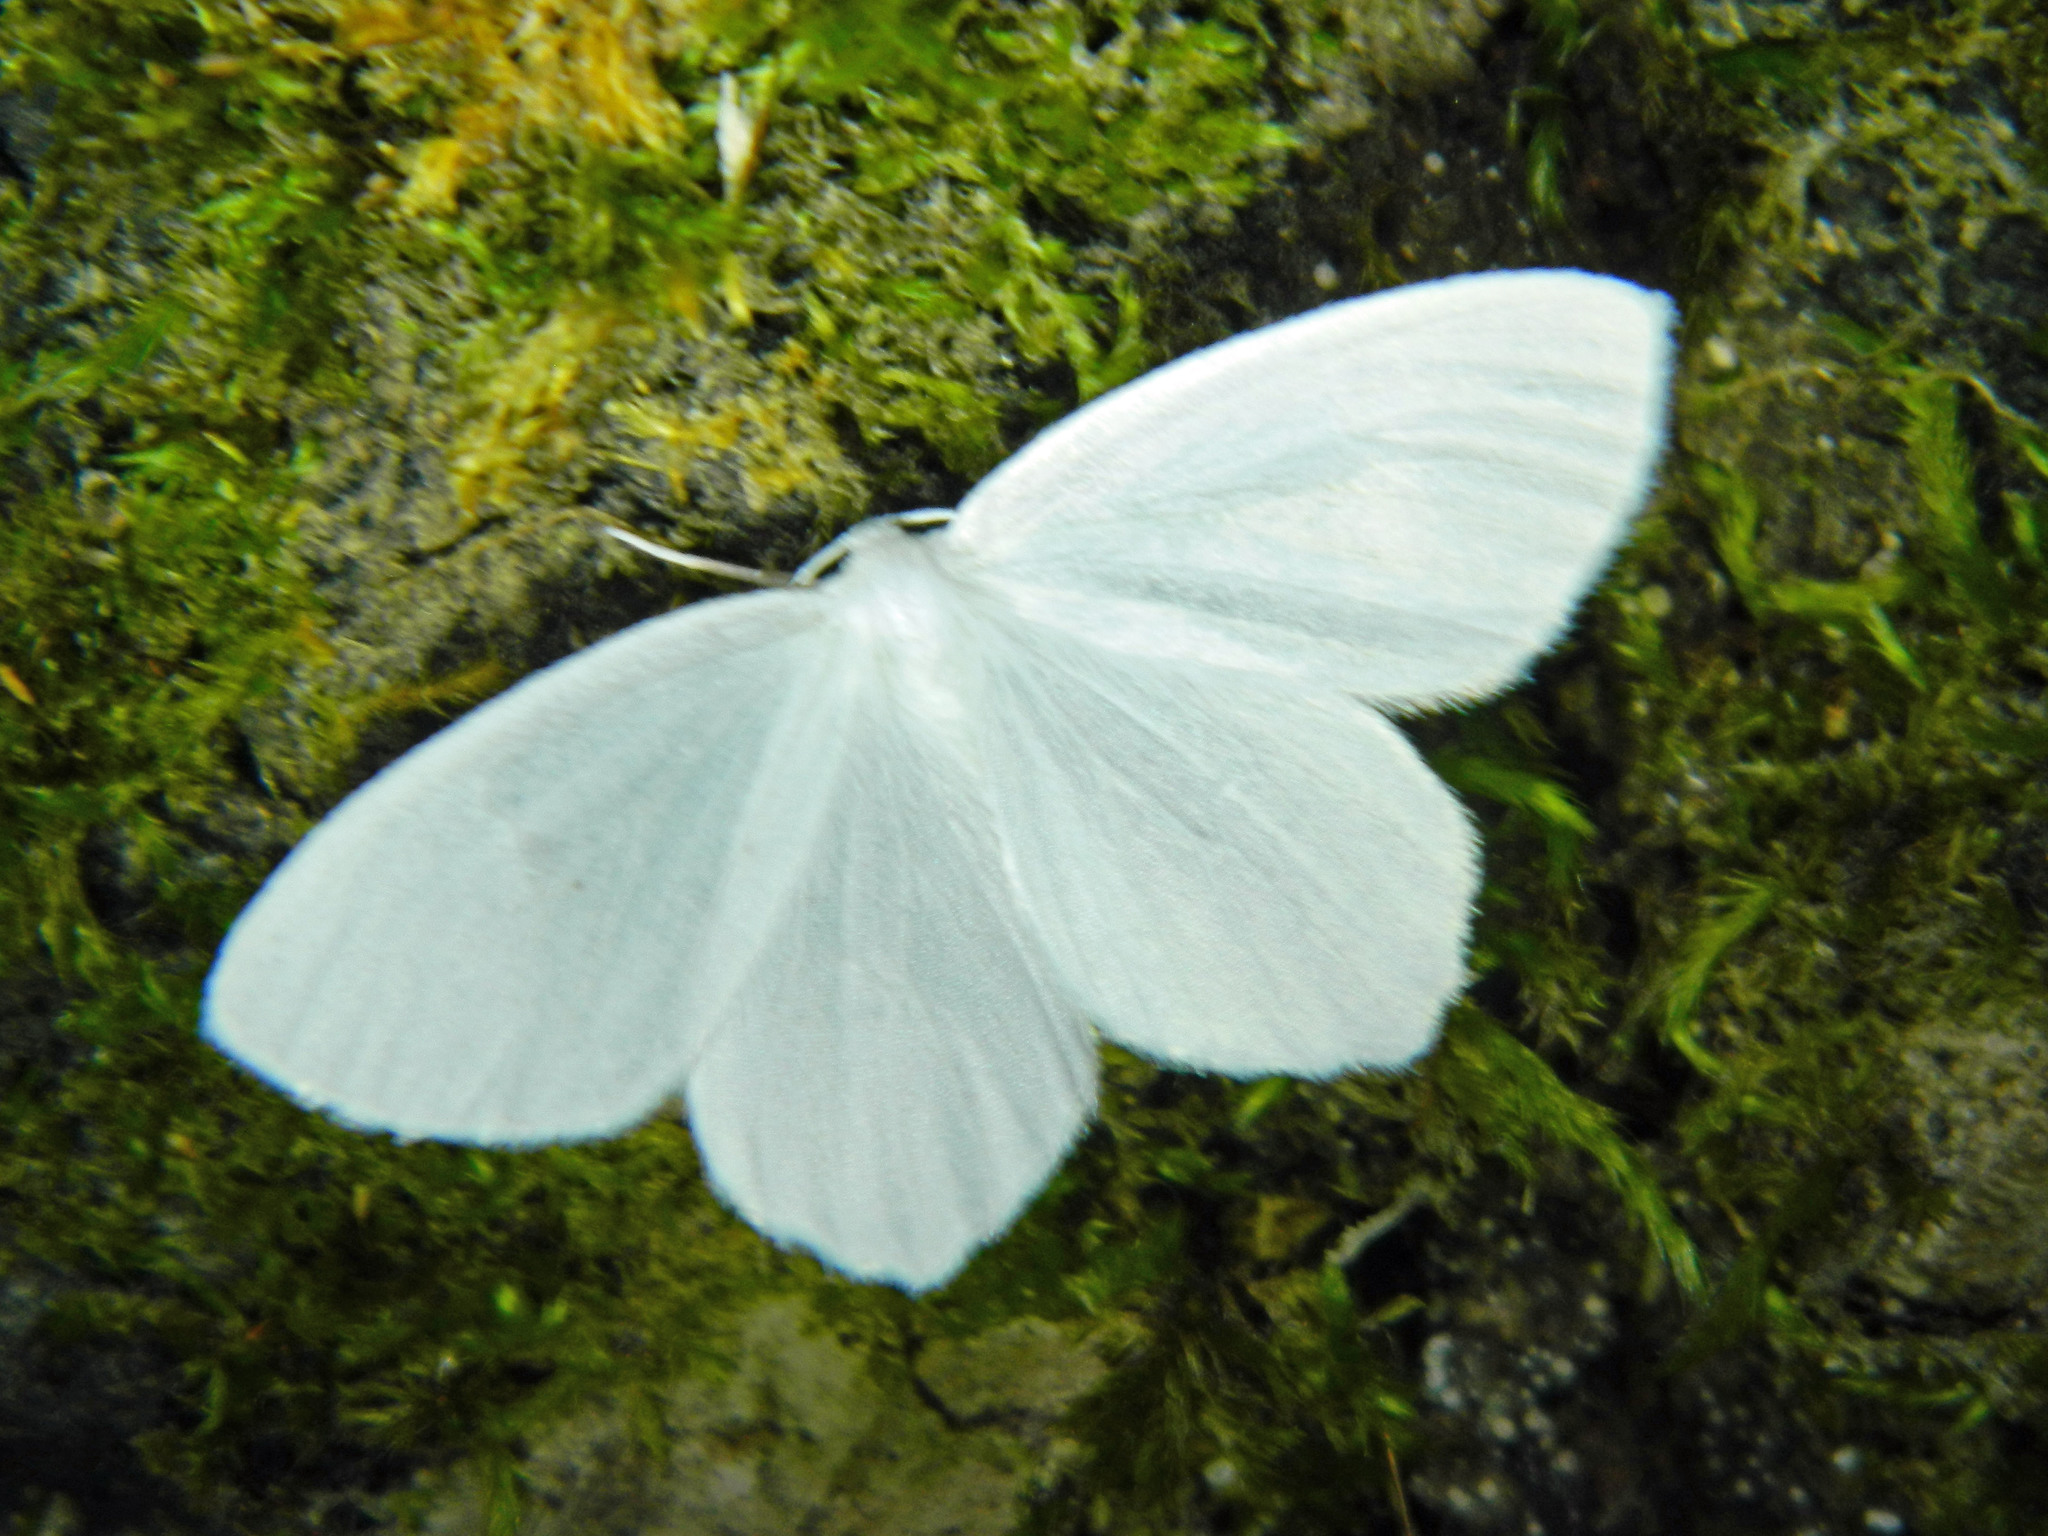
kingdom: Animalia
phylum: Arthropoda
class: Insecta
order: Lepidoptera
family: Geometridae
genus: Eugonobapta
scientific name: Eugonobapta nivosaria
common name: Snowy geometer
